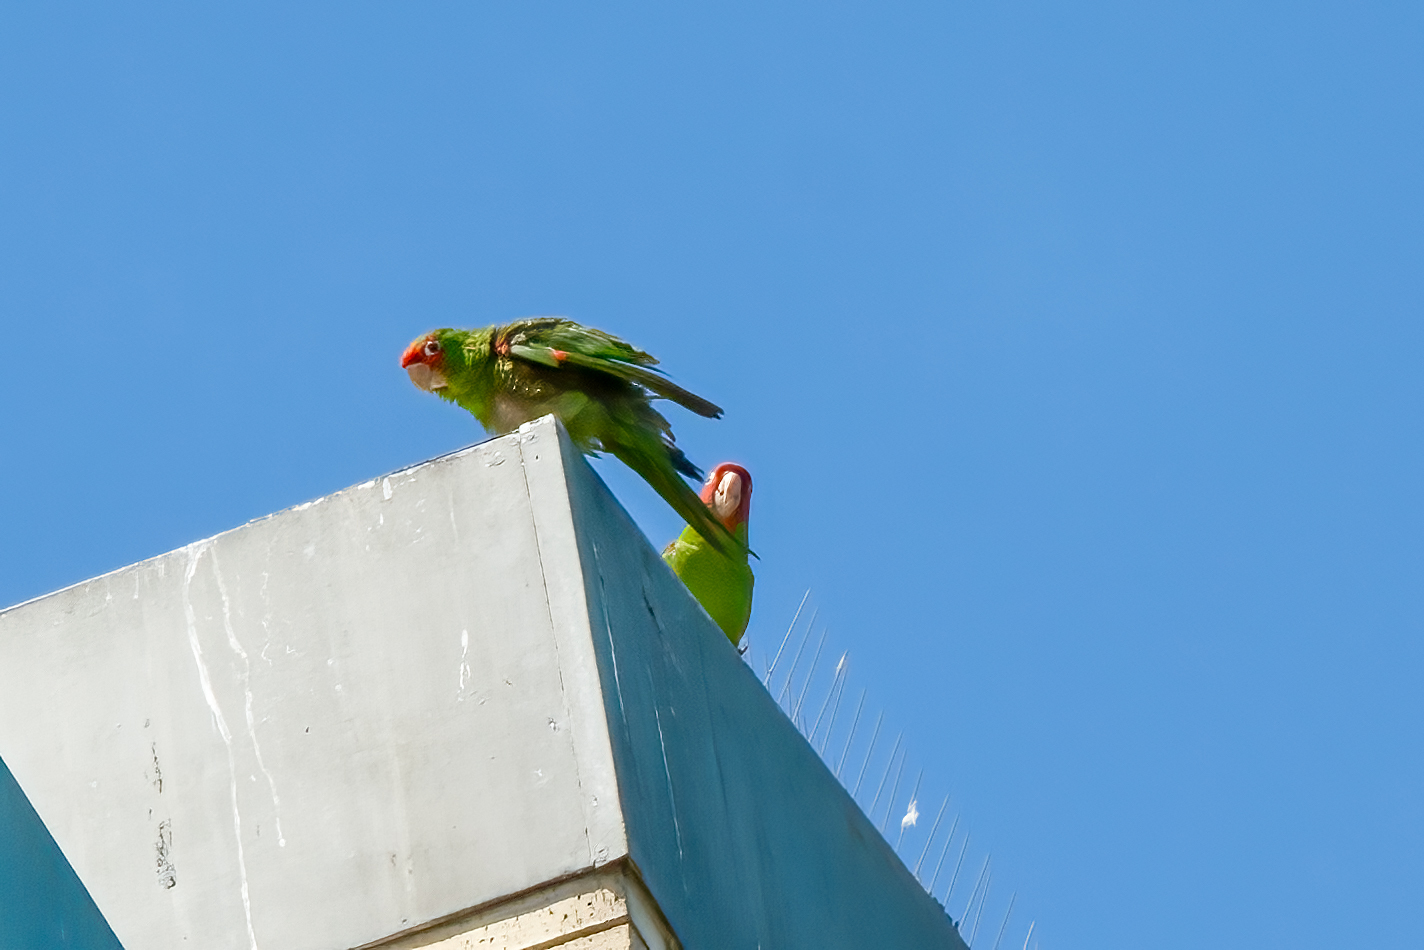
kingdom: Animalia
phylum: Chordata
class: Aves
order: Psittaciformes
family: Psittacidae
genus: Aratinga
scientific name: Aratinga erythrogenys
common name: Red-masked parakeet
